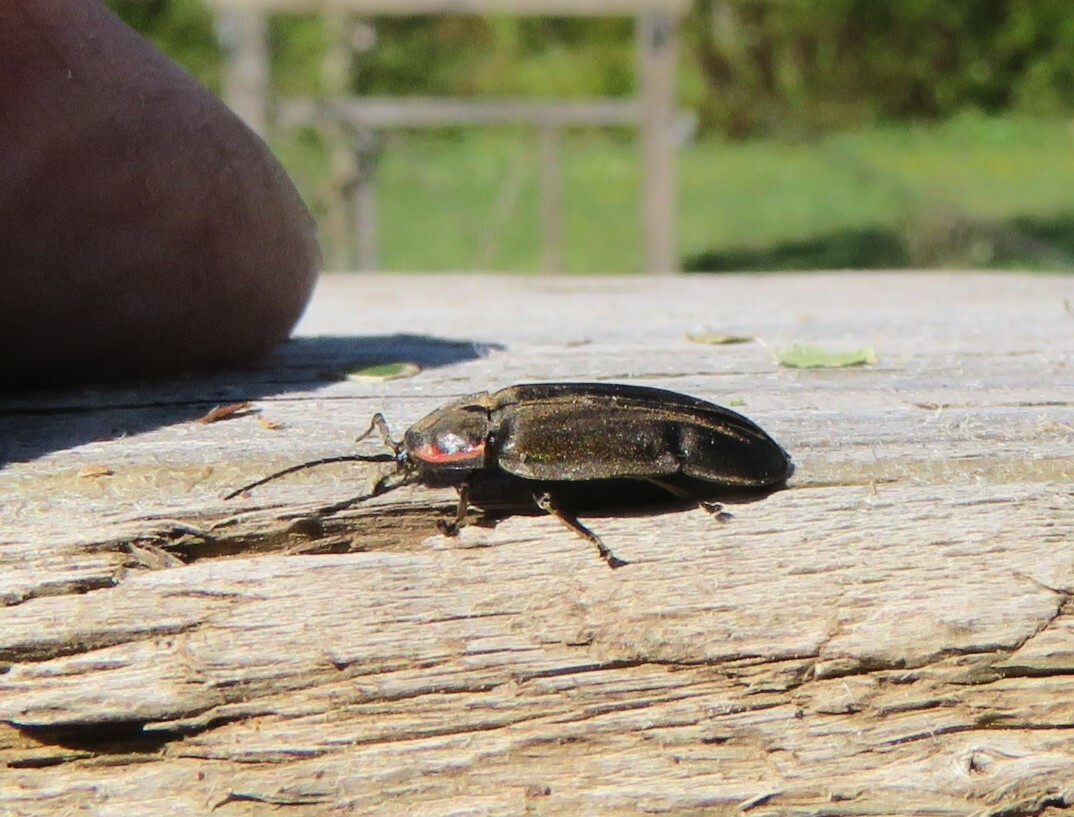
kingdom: Animalia
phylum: Arthropoda
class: Insecta
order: Coleoptera
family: Lampyridae
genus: Photinus
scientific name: Photinus corrusca
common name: Winter firefly
